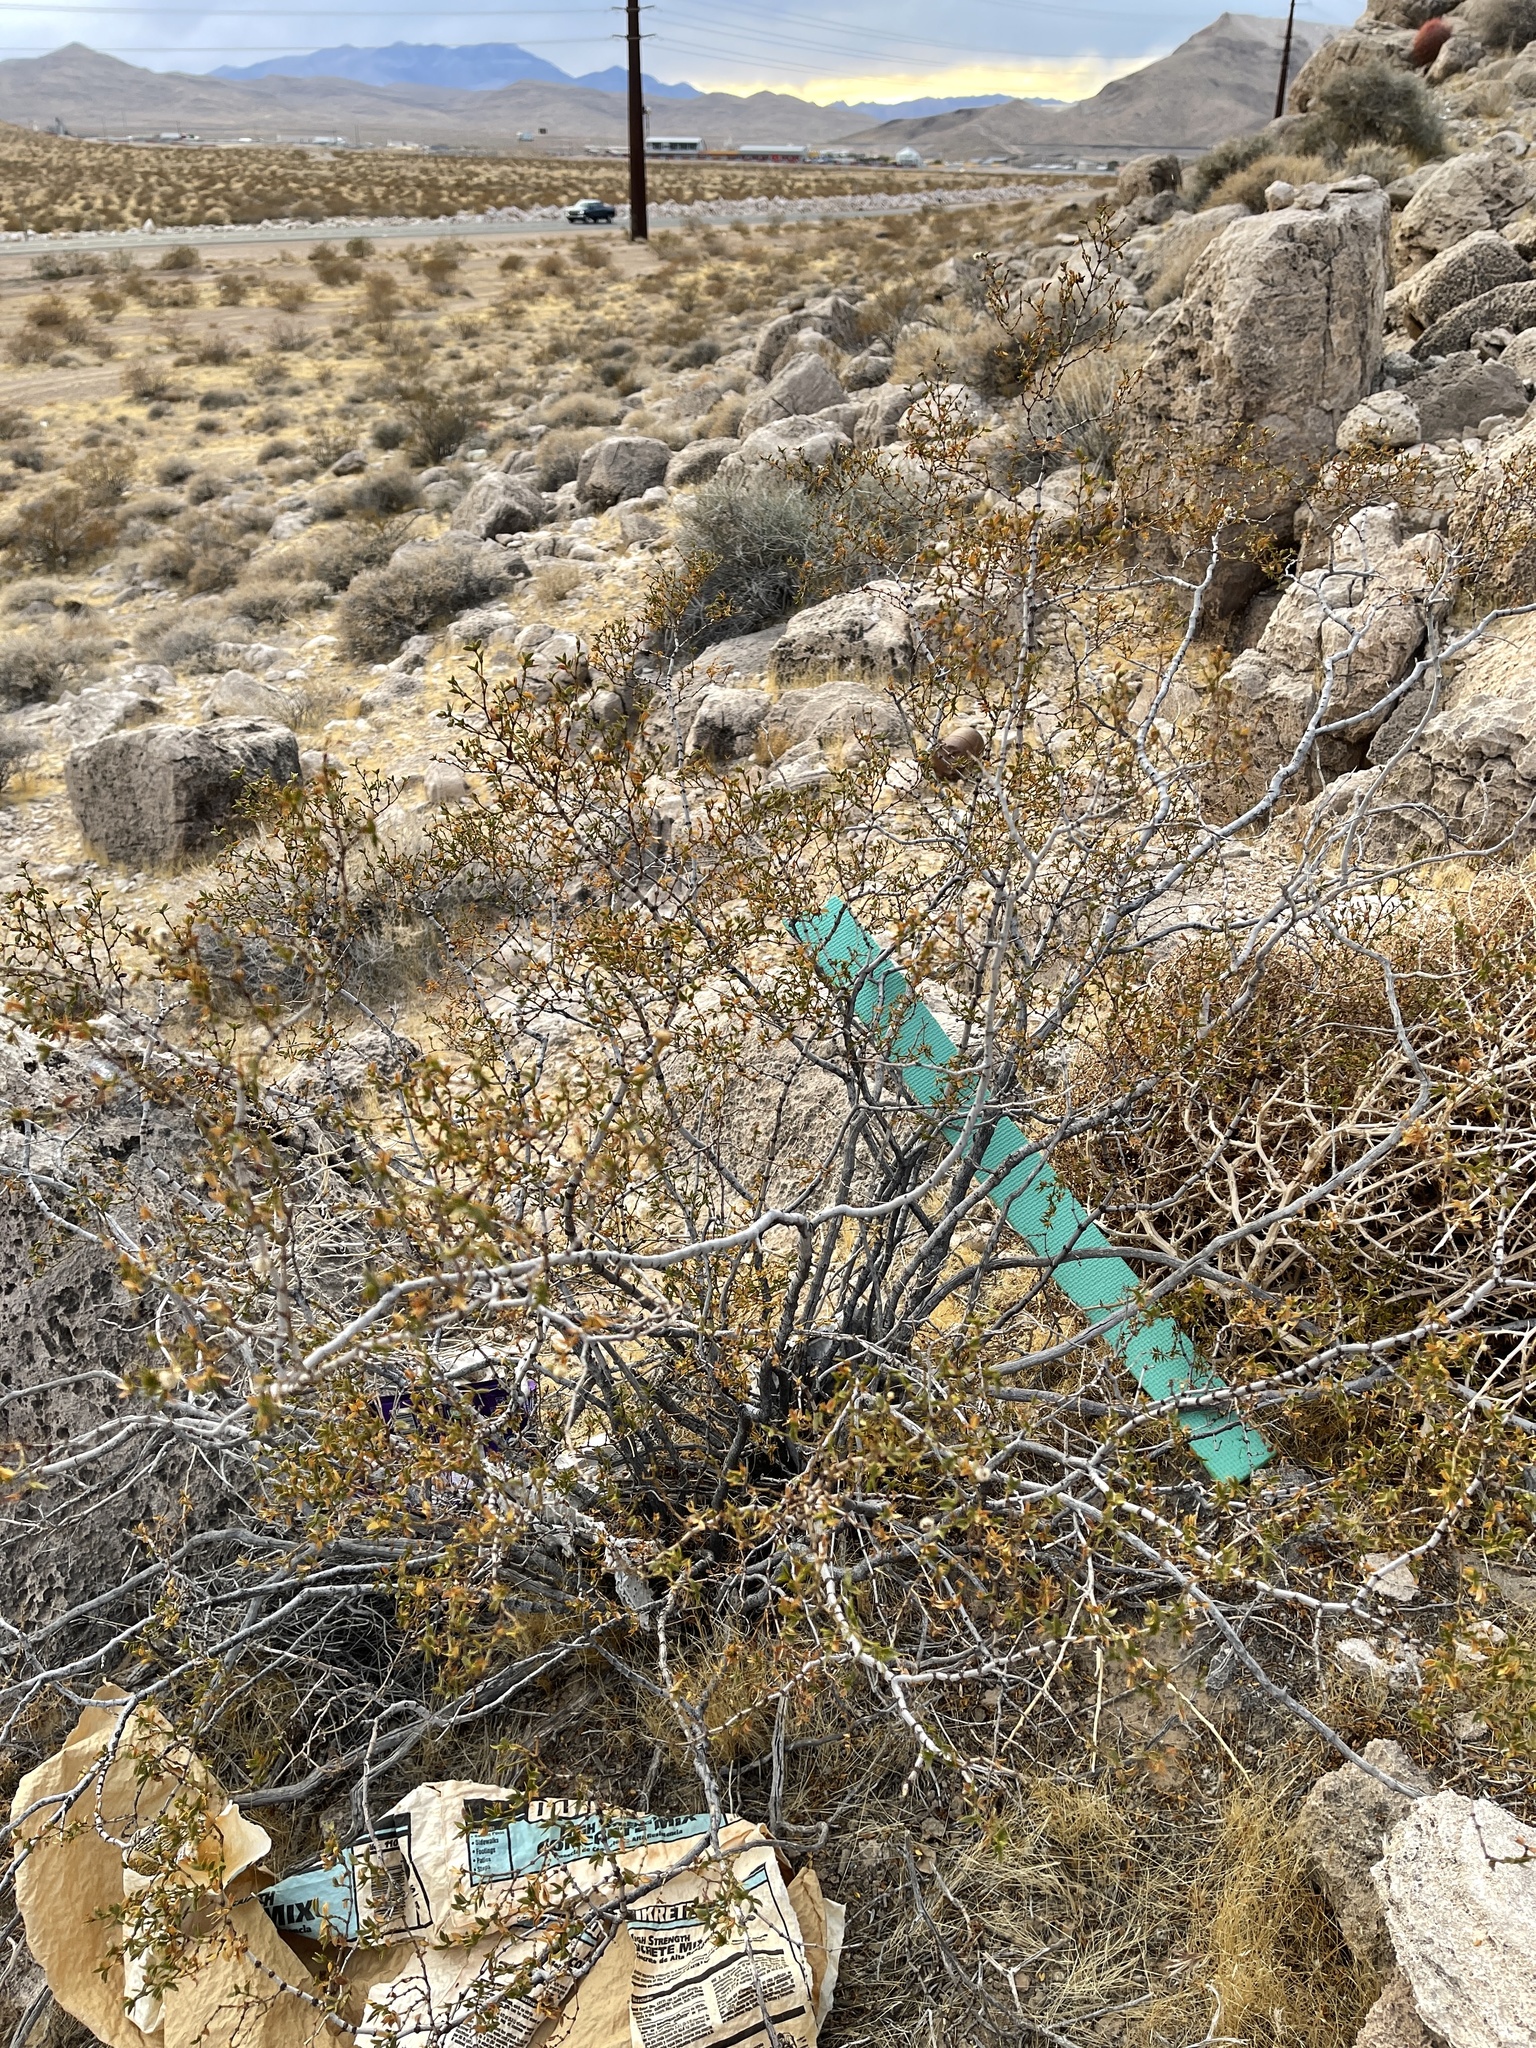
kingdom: Plantae
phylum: Tracheophyta
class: Magnoliopsida
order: Zygophyllales
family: Zygophyllaceae
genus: Larrea
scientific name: Larrea tridentata
